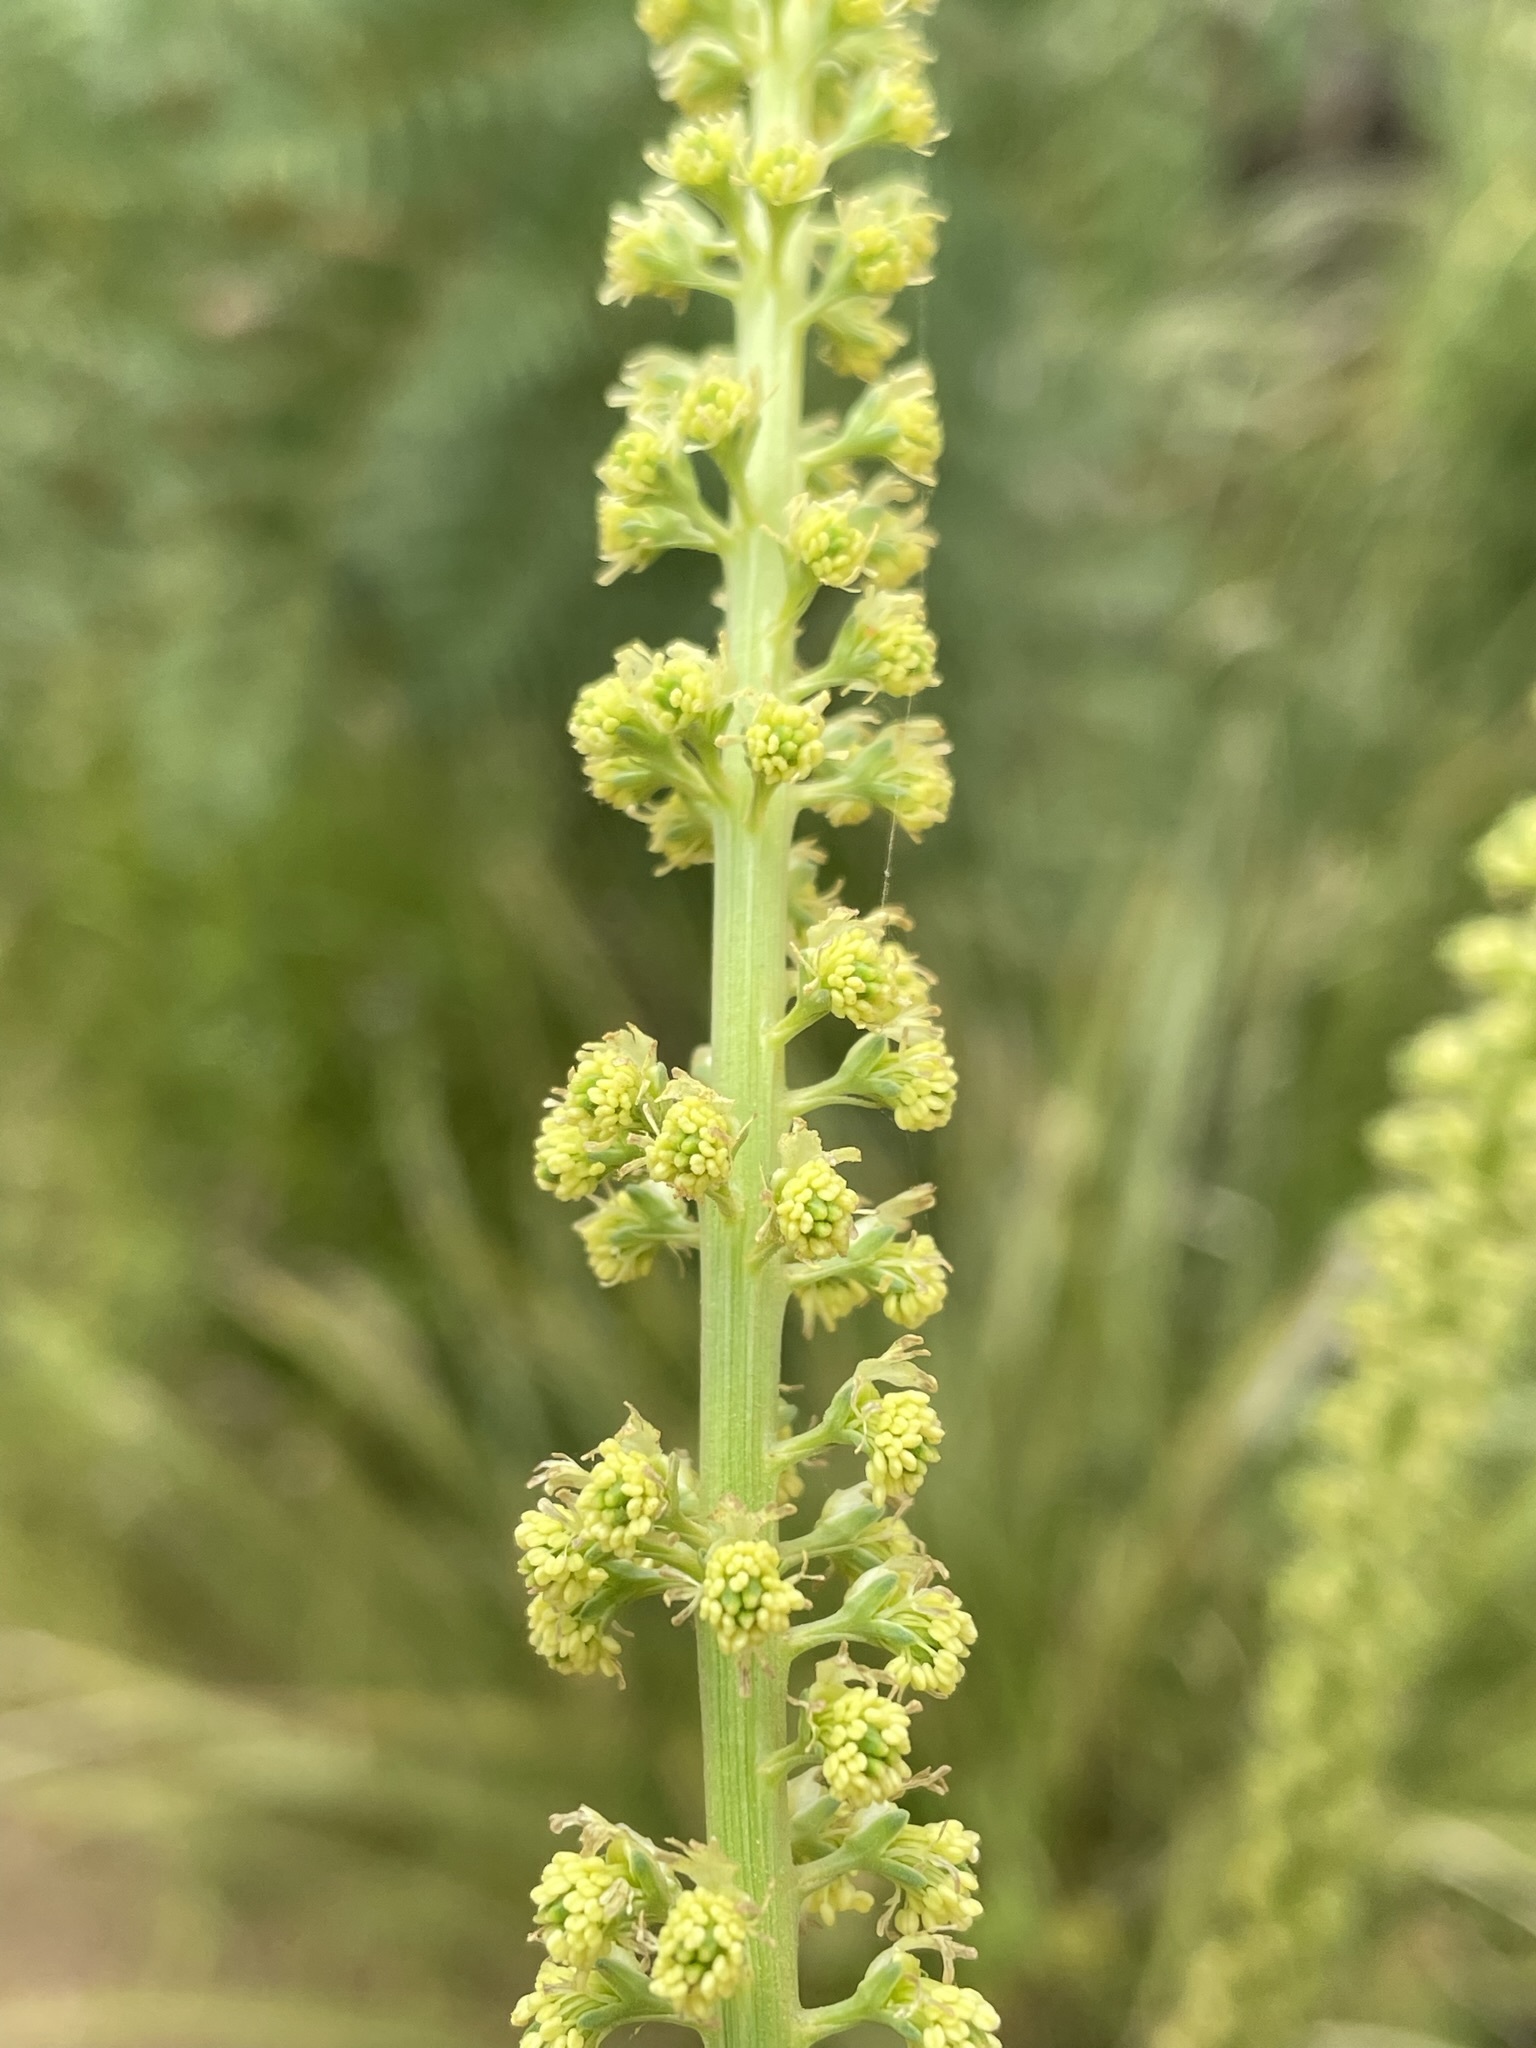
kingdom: Plantae
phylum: Tracheophyta
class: Magnoliopsida
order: Brassicales
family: Resedaceae
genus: Reseda
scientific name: Reseda luteola
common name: Weld
